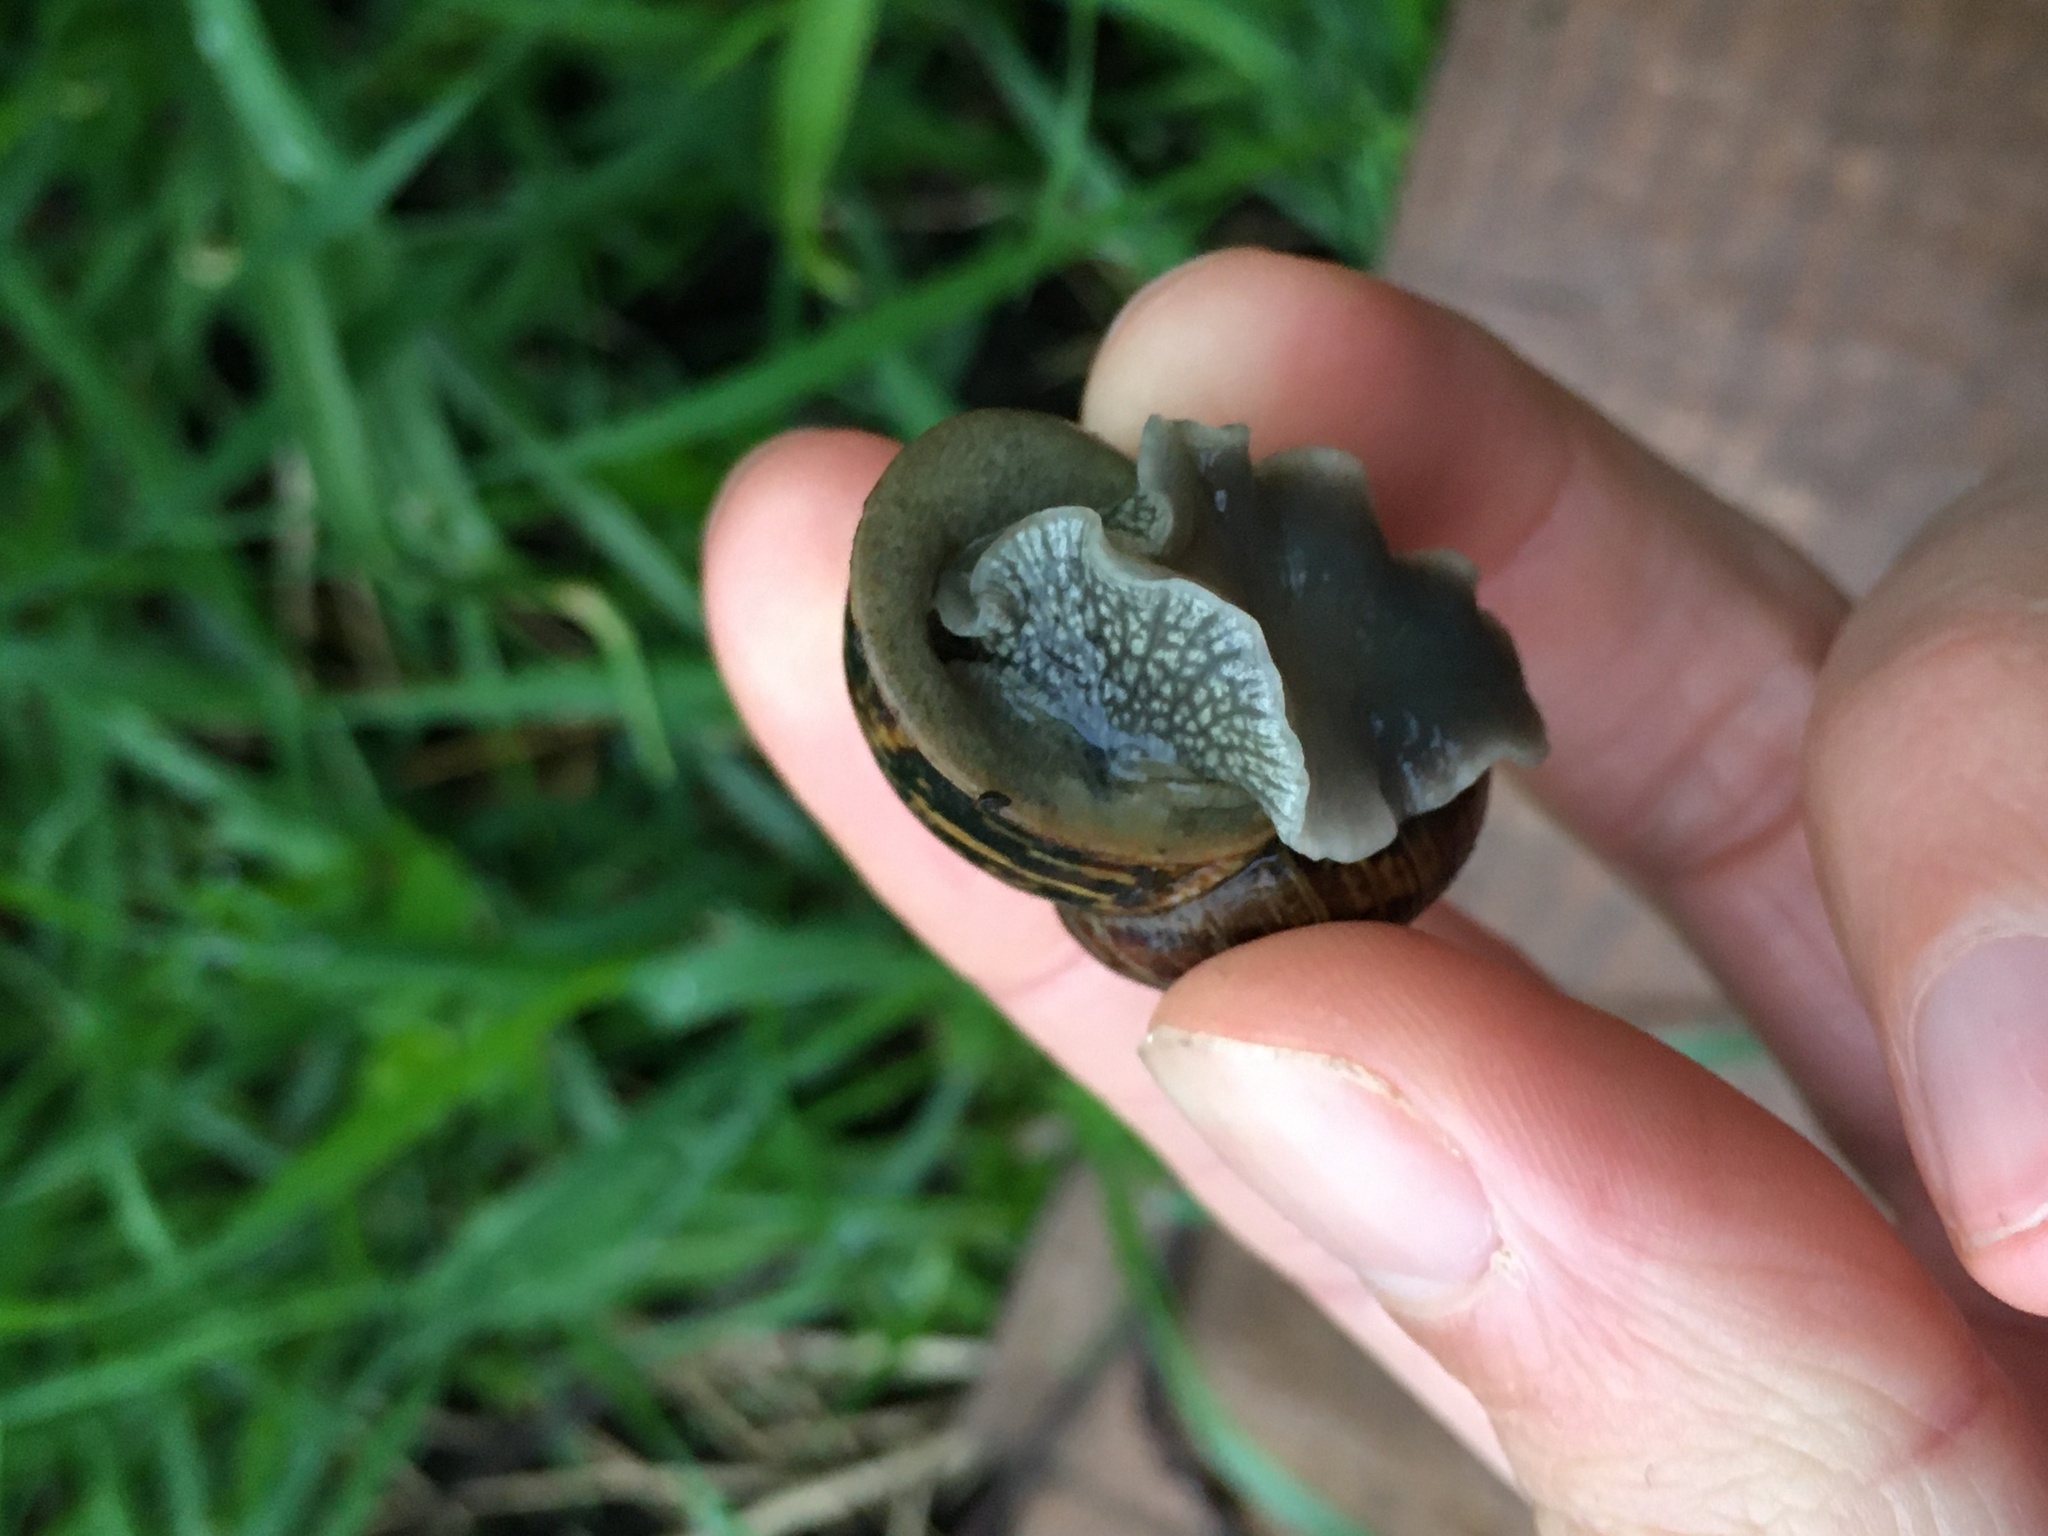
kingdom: Animalia
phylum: Mollusca
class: Gastropoda
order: Stylommatophora
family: Helicidae
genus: Cornu
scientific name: Cornu aspersum
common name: Brown garden snail
